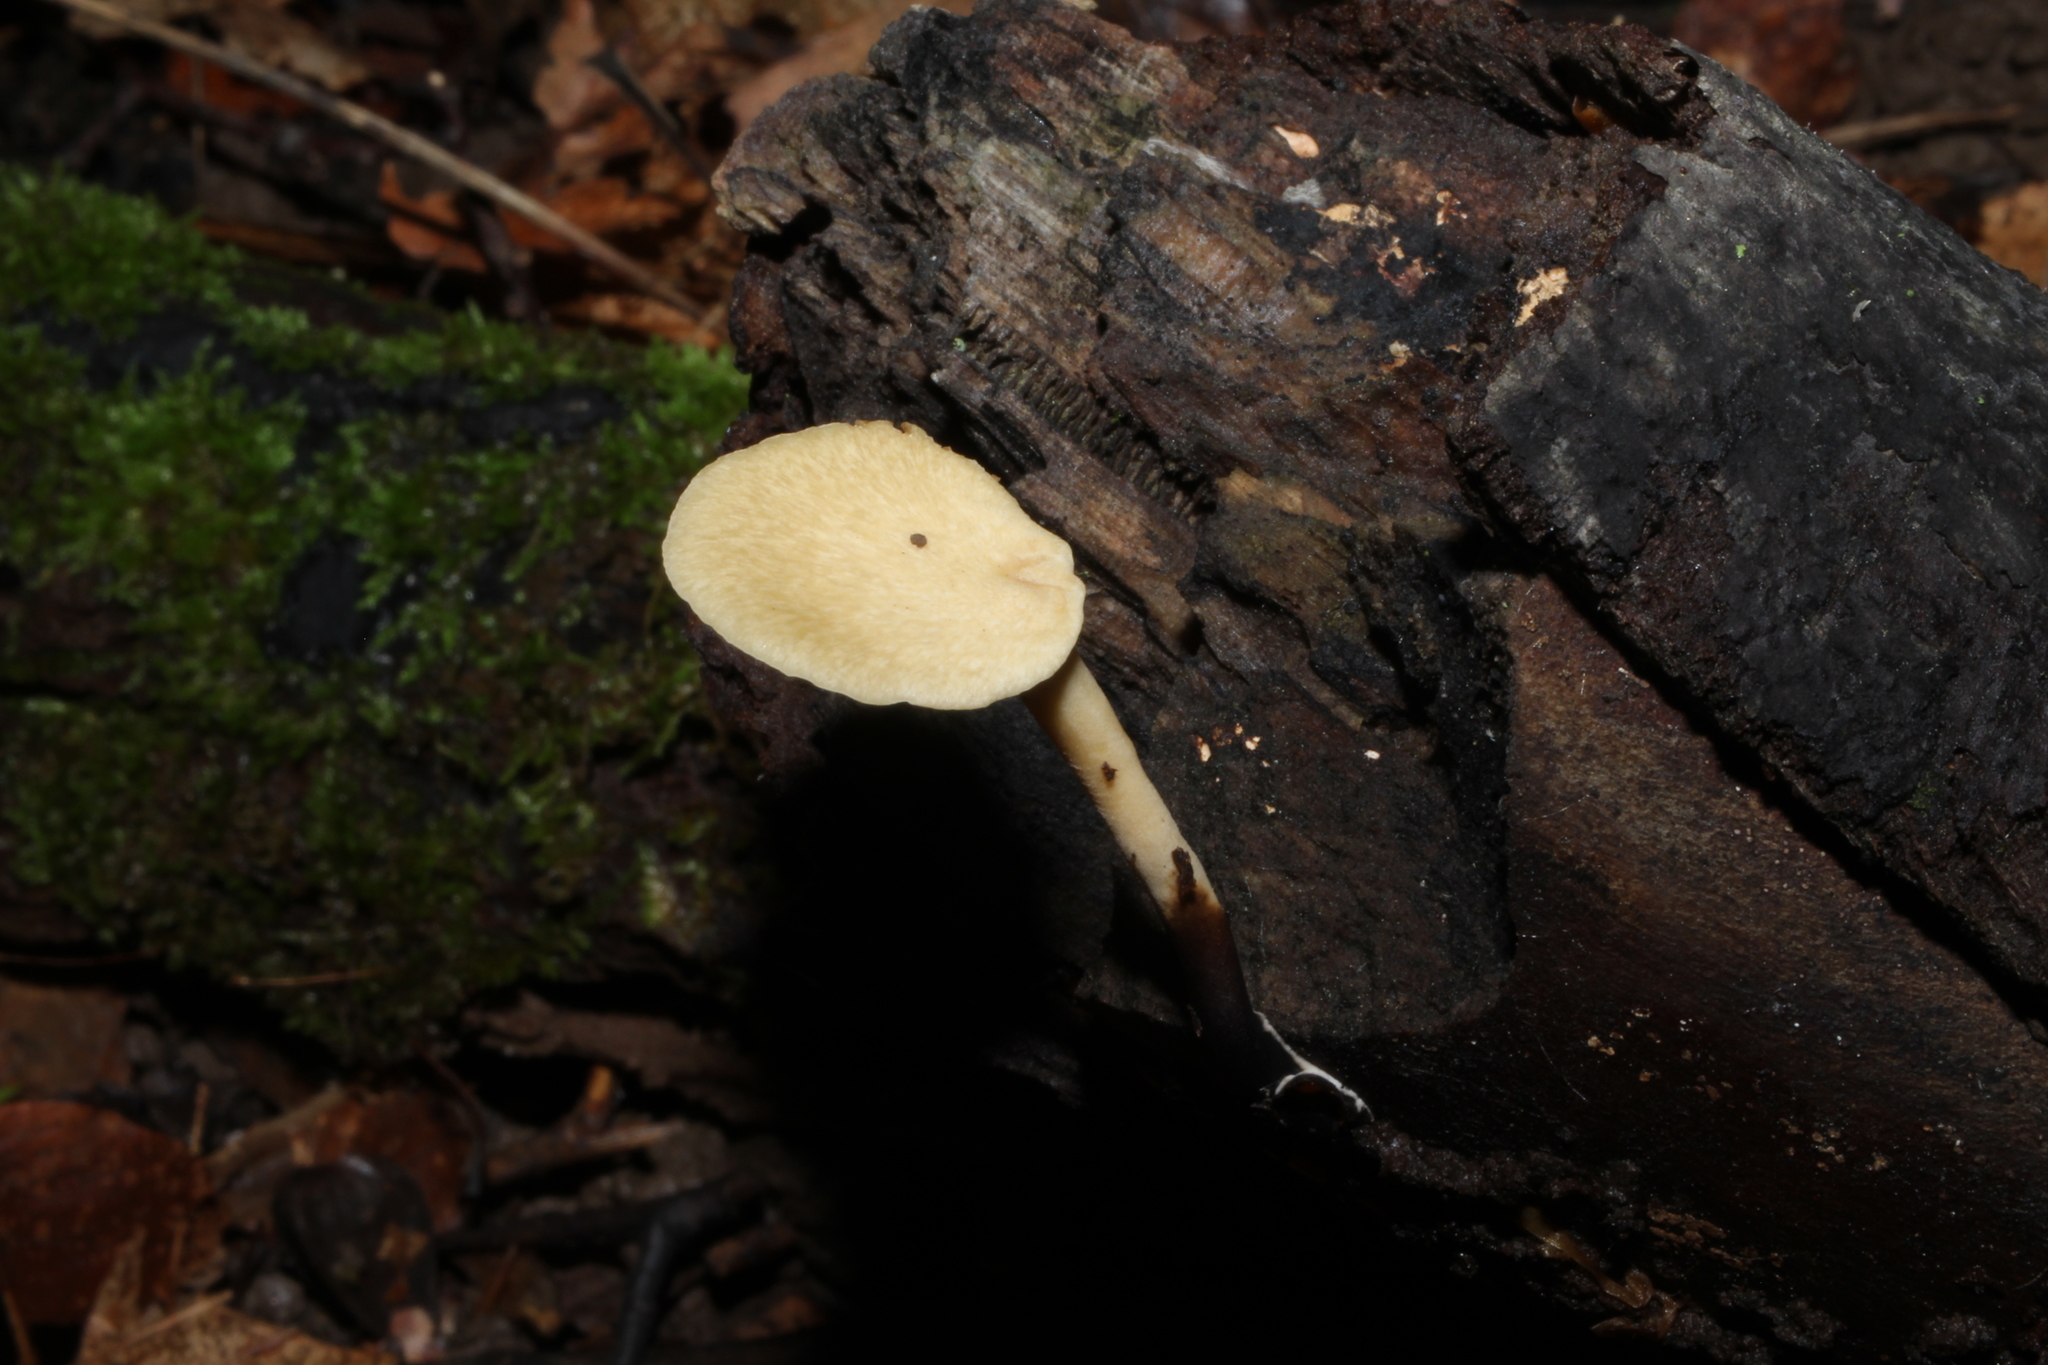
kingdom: Fungi
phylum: Basidiomycota
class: Agaricomycetes
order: Polyporales
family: Polyporaceae
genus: Cerioporus
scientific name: Cerioporus leptocephalus
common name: Blackfoot polypore
